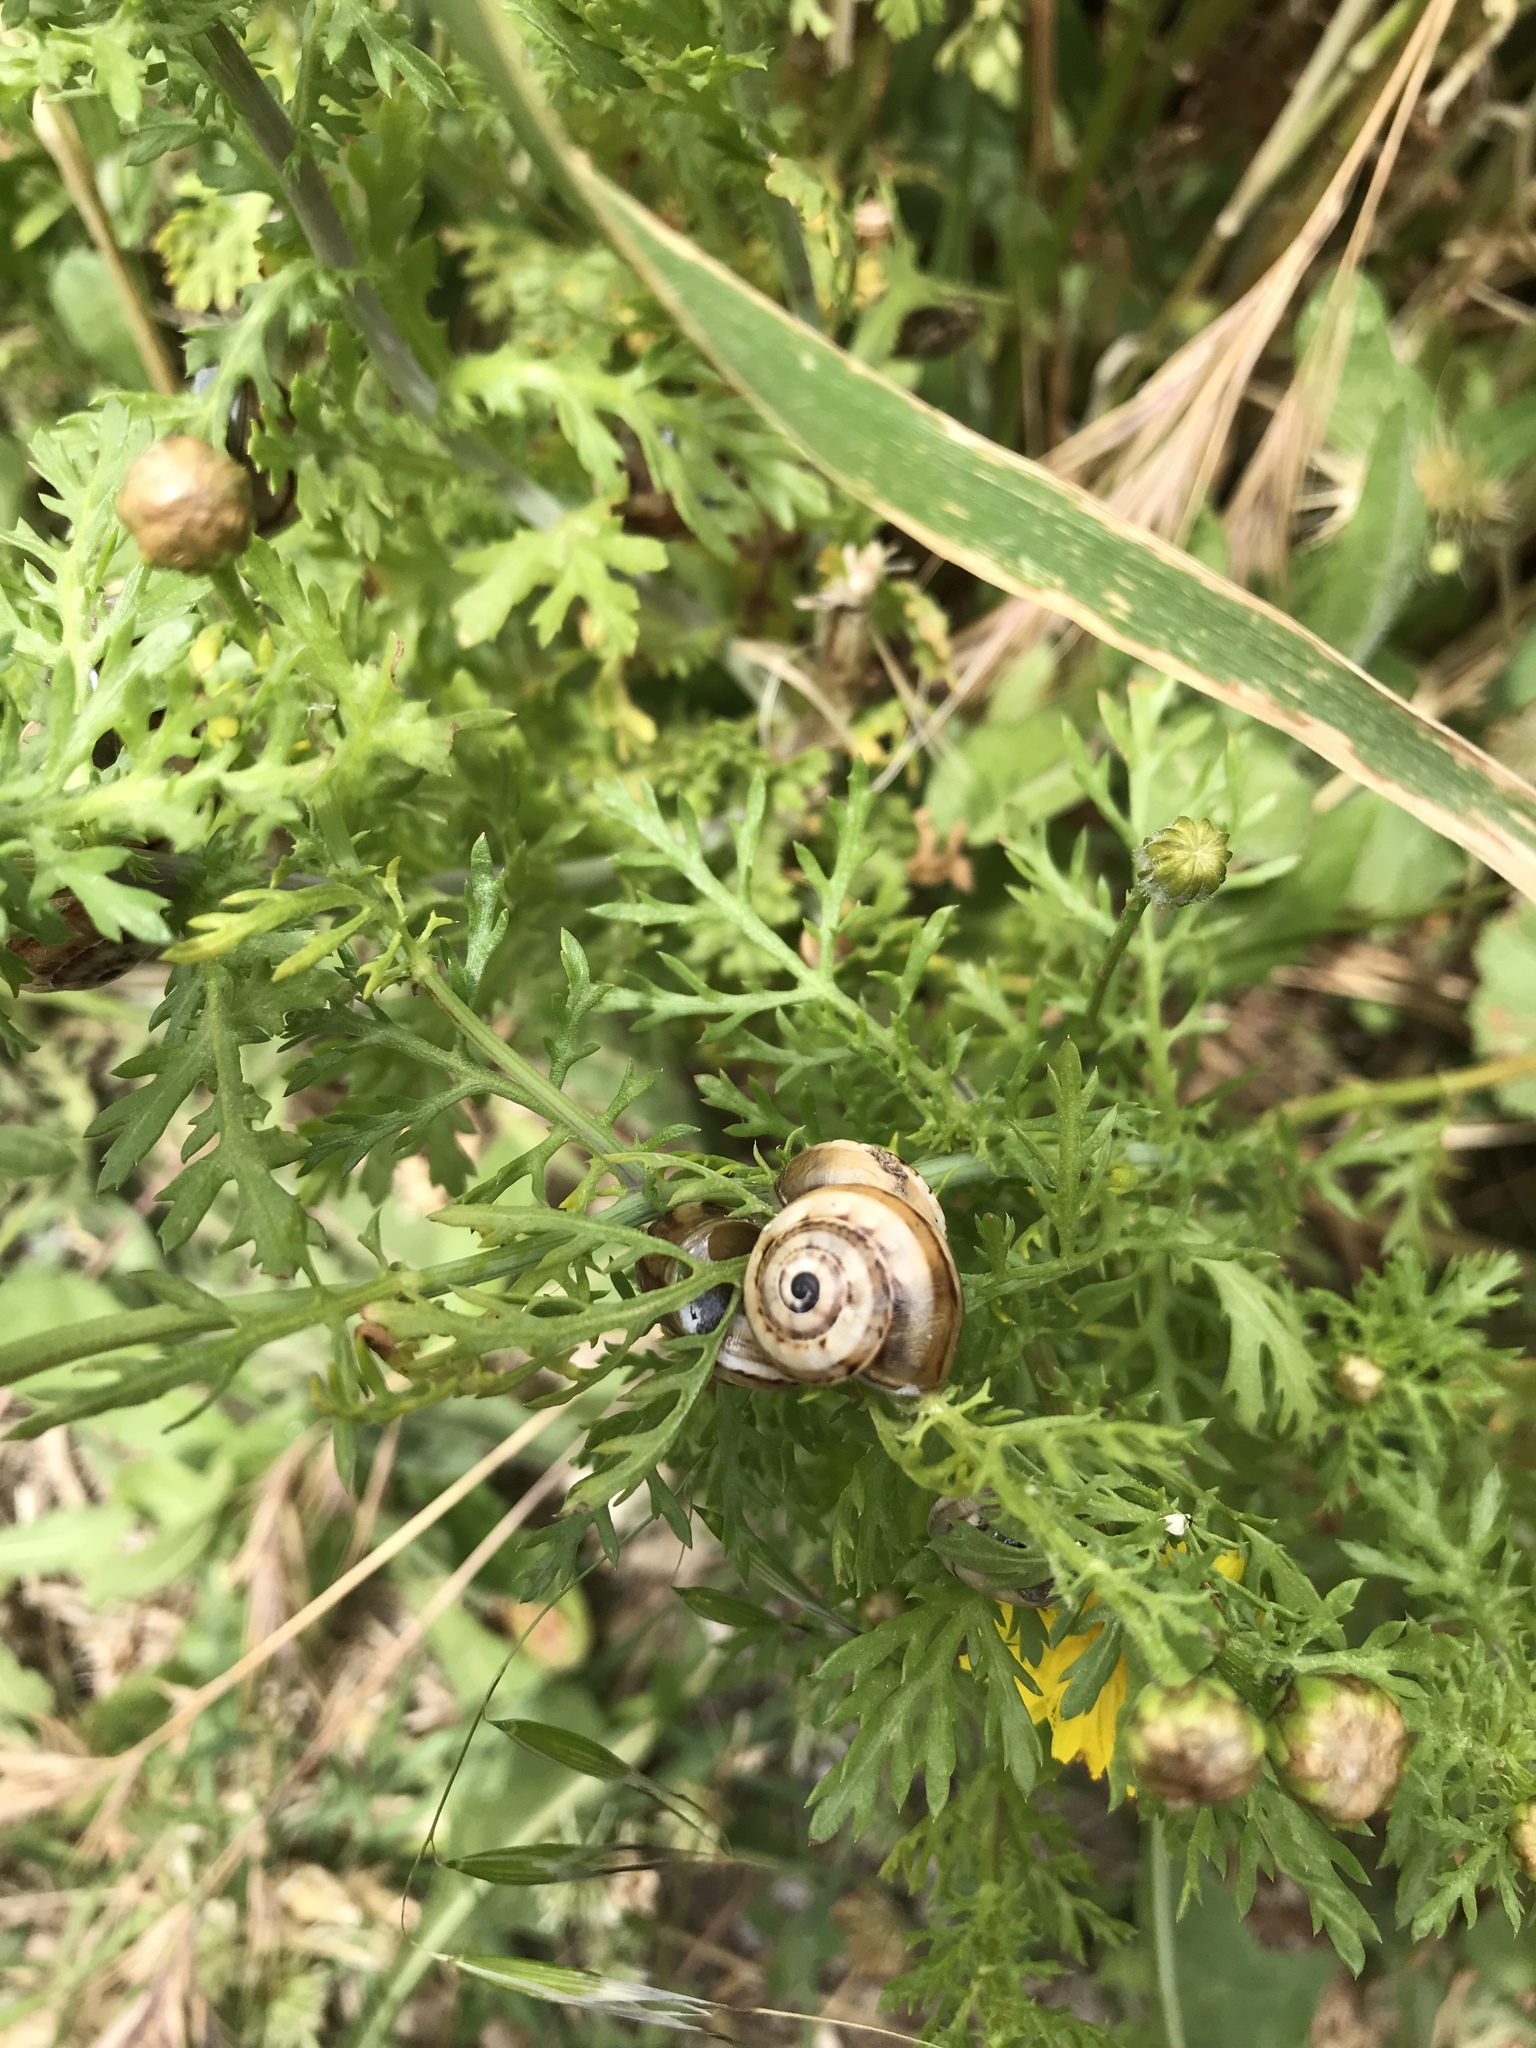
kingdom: Animalia
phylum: Mollusca
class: Gastropoda
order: Stylommatophora
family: Helicidae
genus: Theba
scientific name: Theba pisana
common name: White snail
